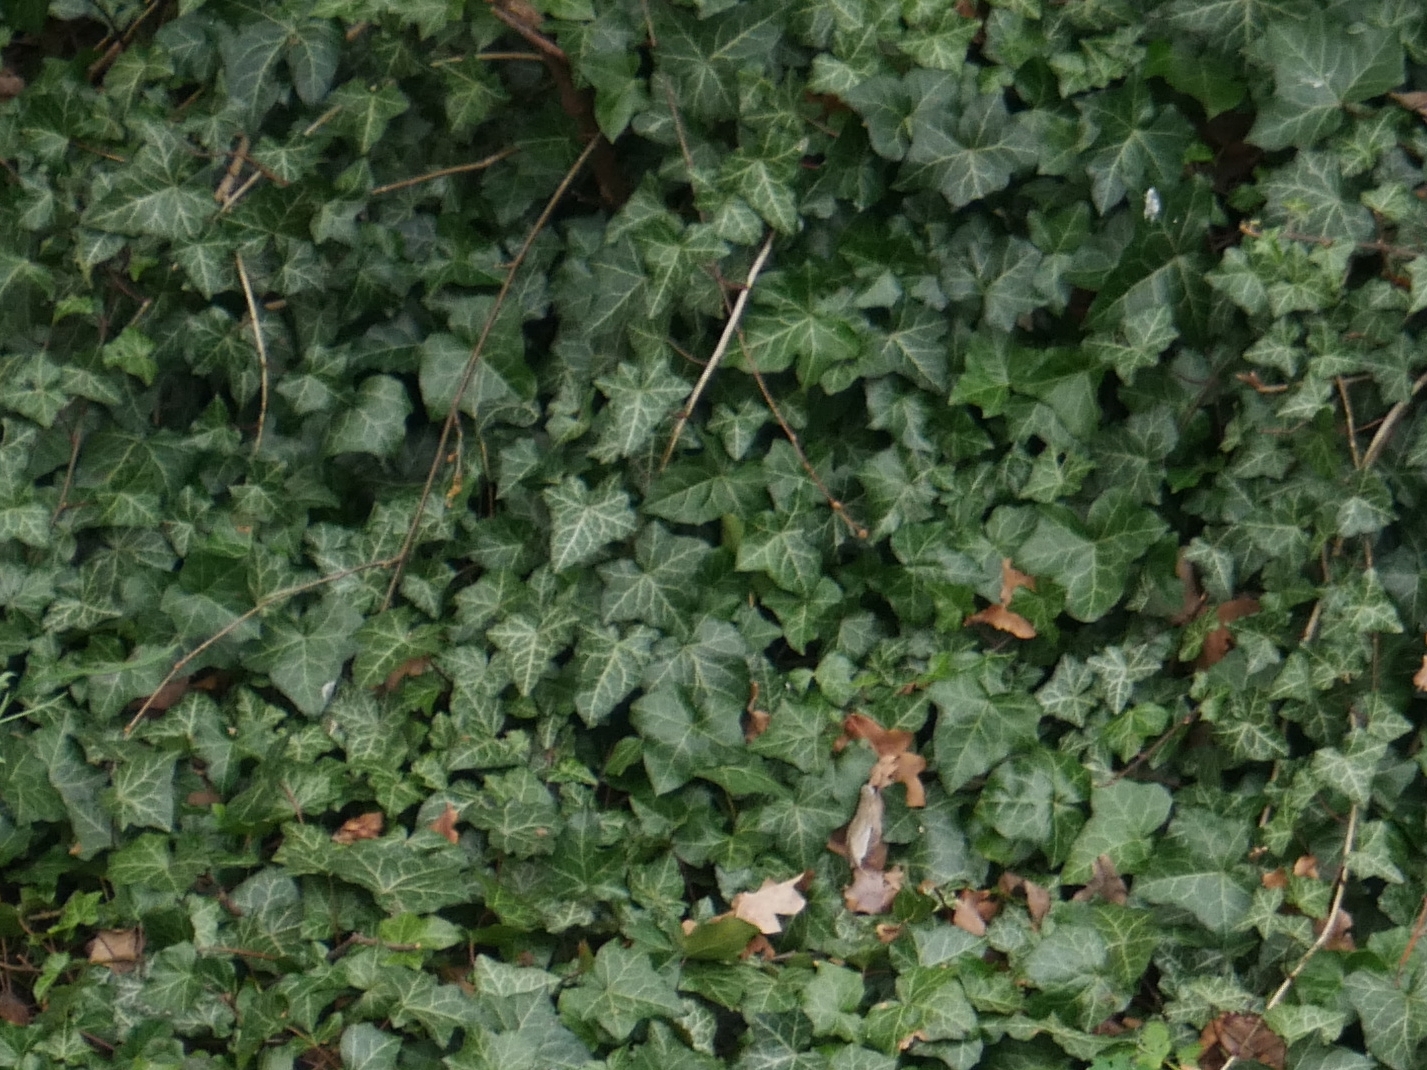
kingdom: Plantae
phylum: Tracheophyta
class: Magnoliopsida
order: Apiales
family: Araliaceae
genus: Hedera
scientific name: Hedera helix
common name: Ivy
